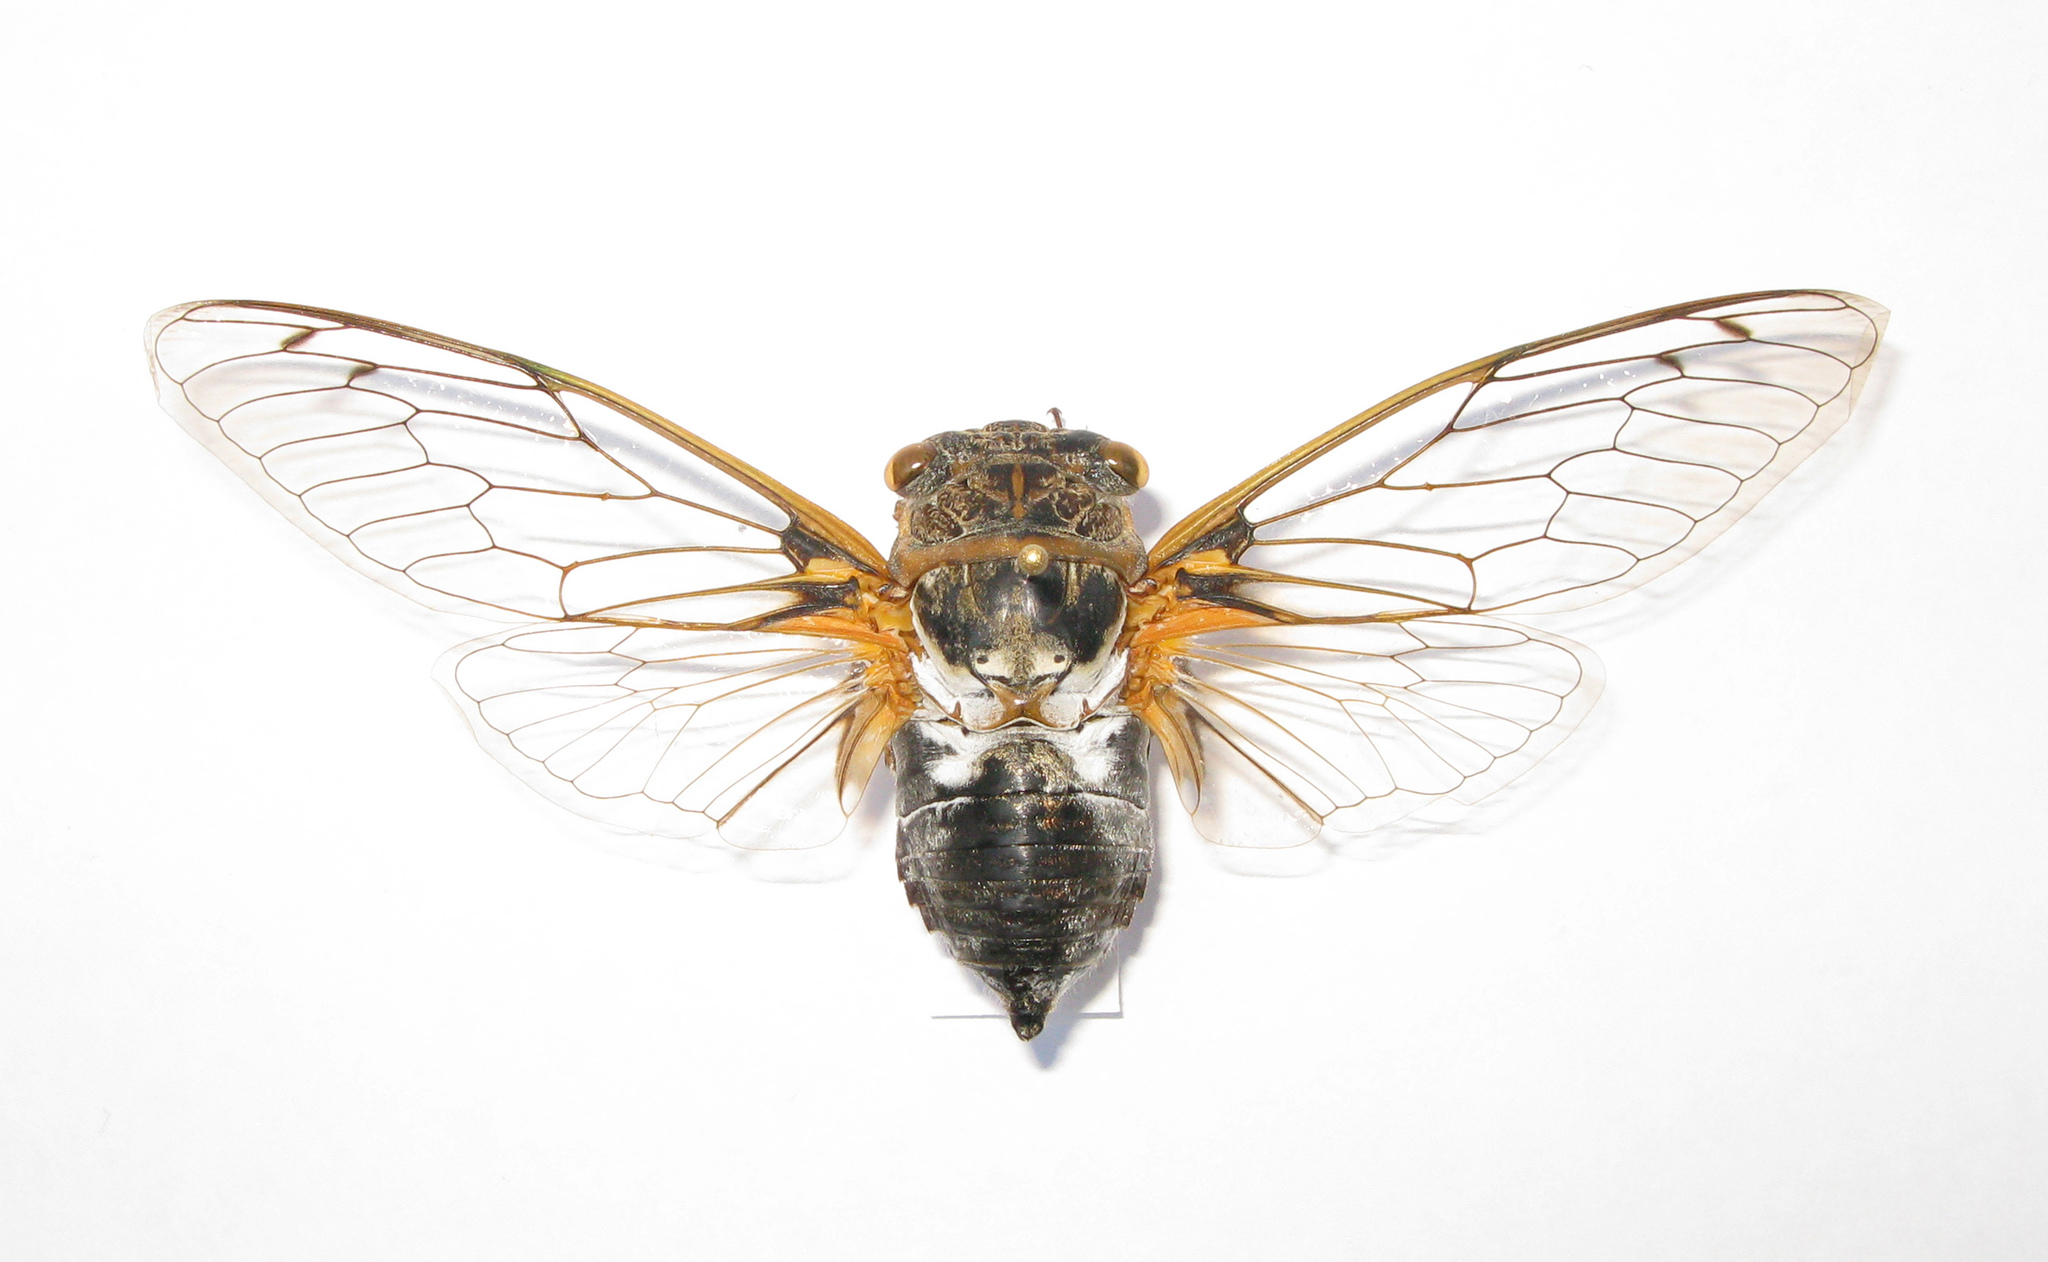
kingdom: Animalia
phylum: Arthropoda
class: Insecta
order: Hemiptera
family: Cicadidae
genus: Lyristes
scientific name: Lyristes gemellus
